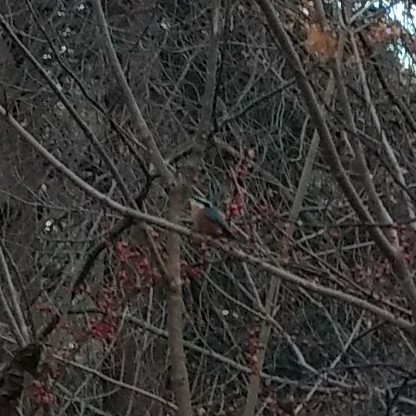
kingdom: Animalia
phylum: Chordata
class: Aves
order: Passeriformes
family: Sittidae
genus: Sitta
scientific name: Sitta canadensis
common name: Red-breasted nuthatch
